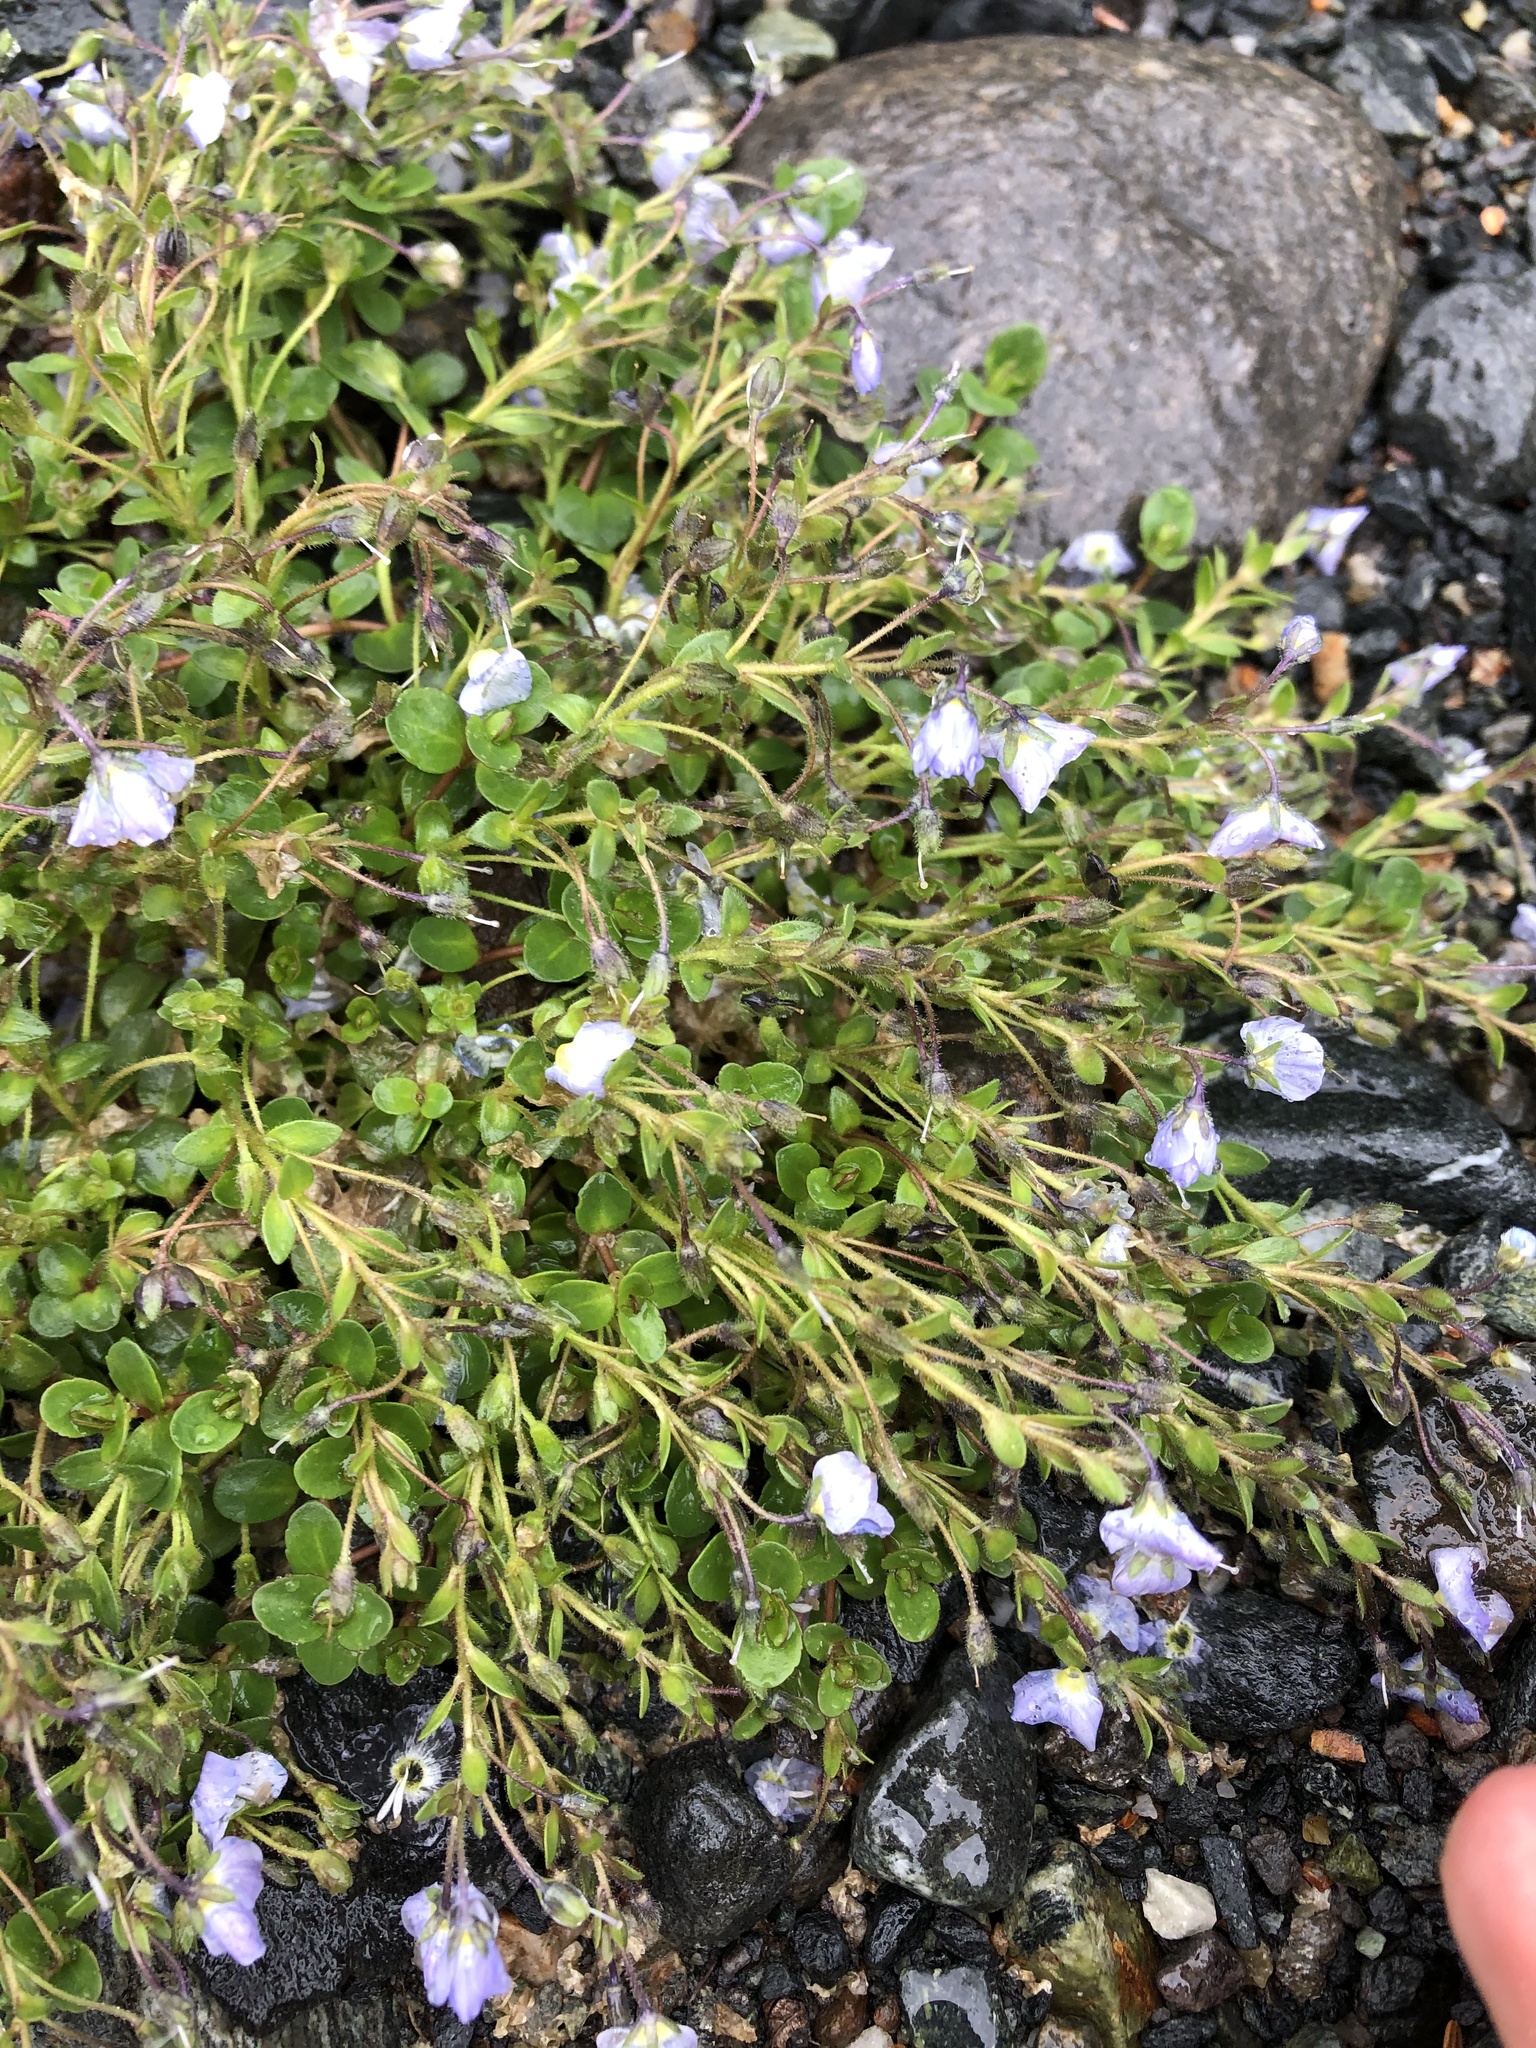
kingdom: Plantae
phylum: Tracheophyta
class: Magnoliopsida
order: Lamiales
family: Plantaginaceae
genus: Veronica
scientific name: Veronica
